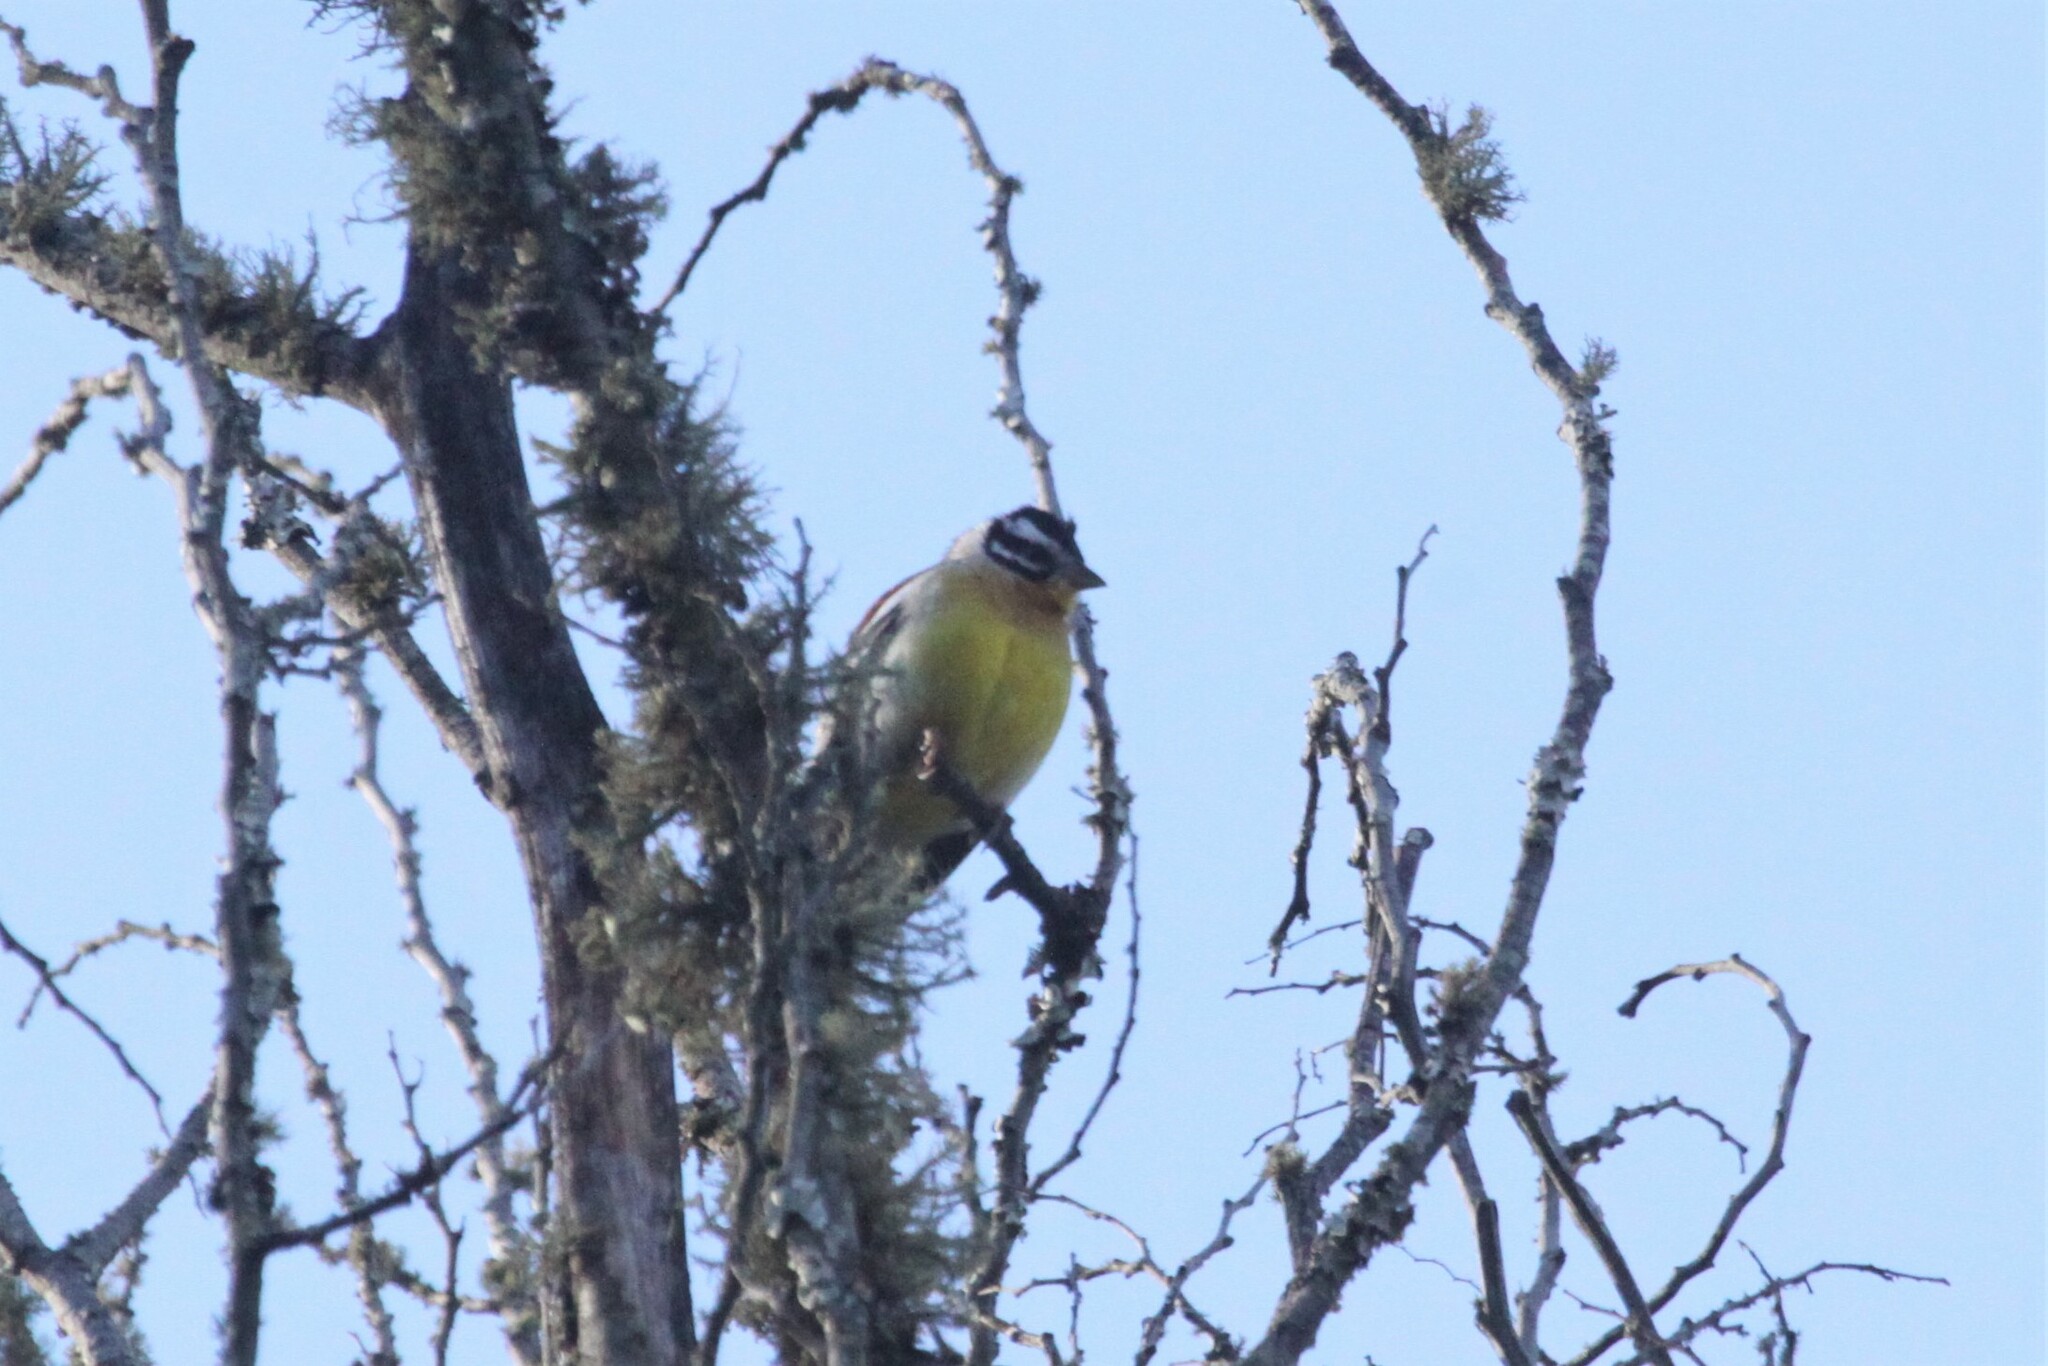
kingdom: Animalia
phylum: Chordata
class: Aves
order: Passeriformes
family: Emberizidae
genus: Emberiza
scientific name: Emberiza flaviventris
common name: Golden-breasted bunting
